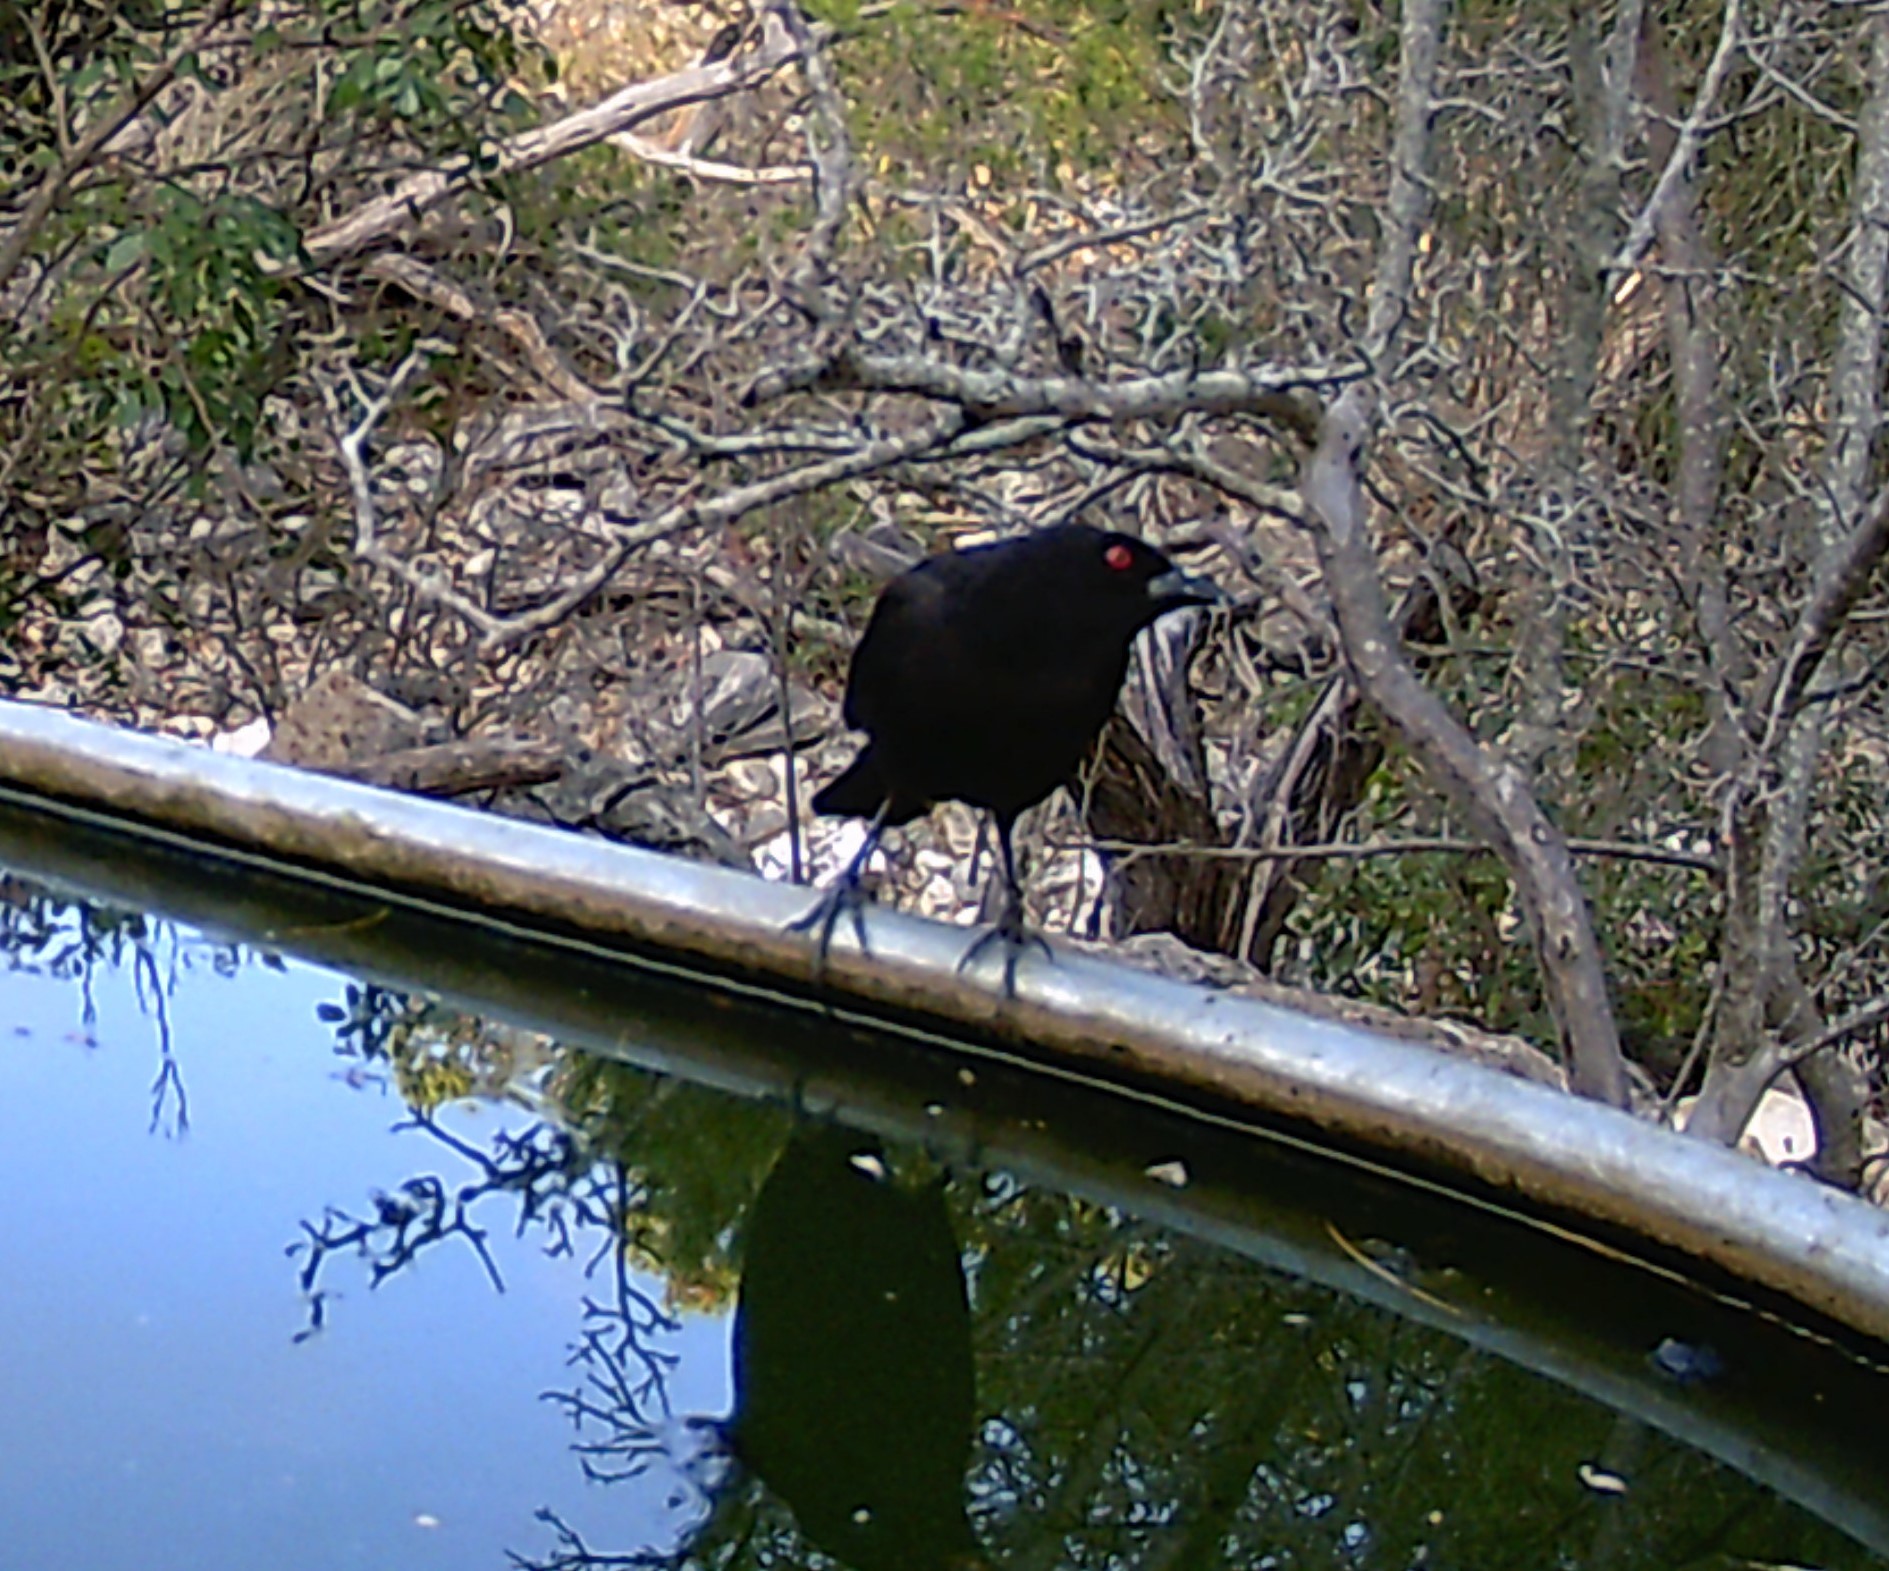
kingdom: Animalia
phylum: Chordata
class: Aves
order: Passeriformes
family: Icteridae
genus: Molothrus
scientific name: Molothrus aeneus
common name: Bronzed cowbird
